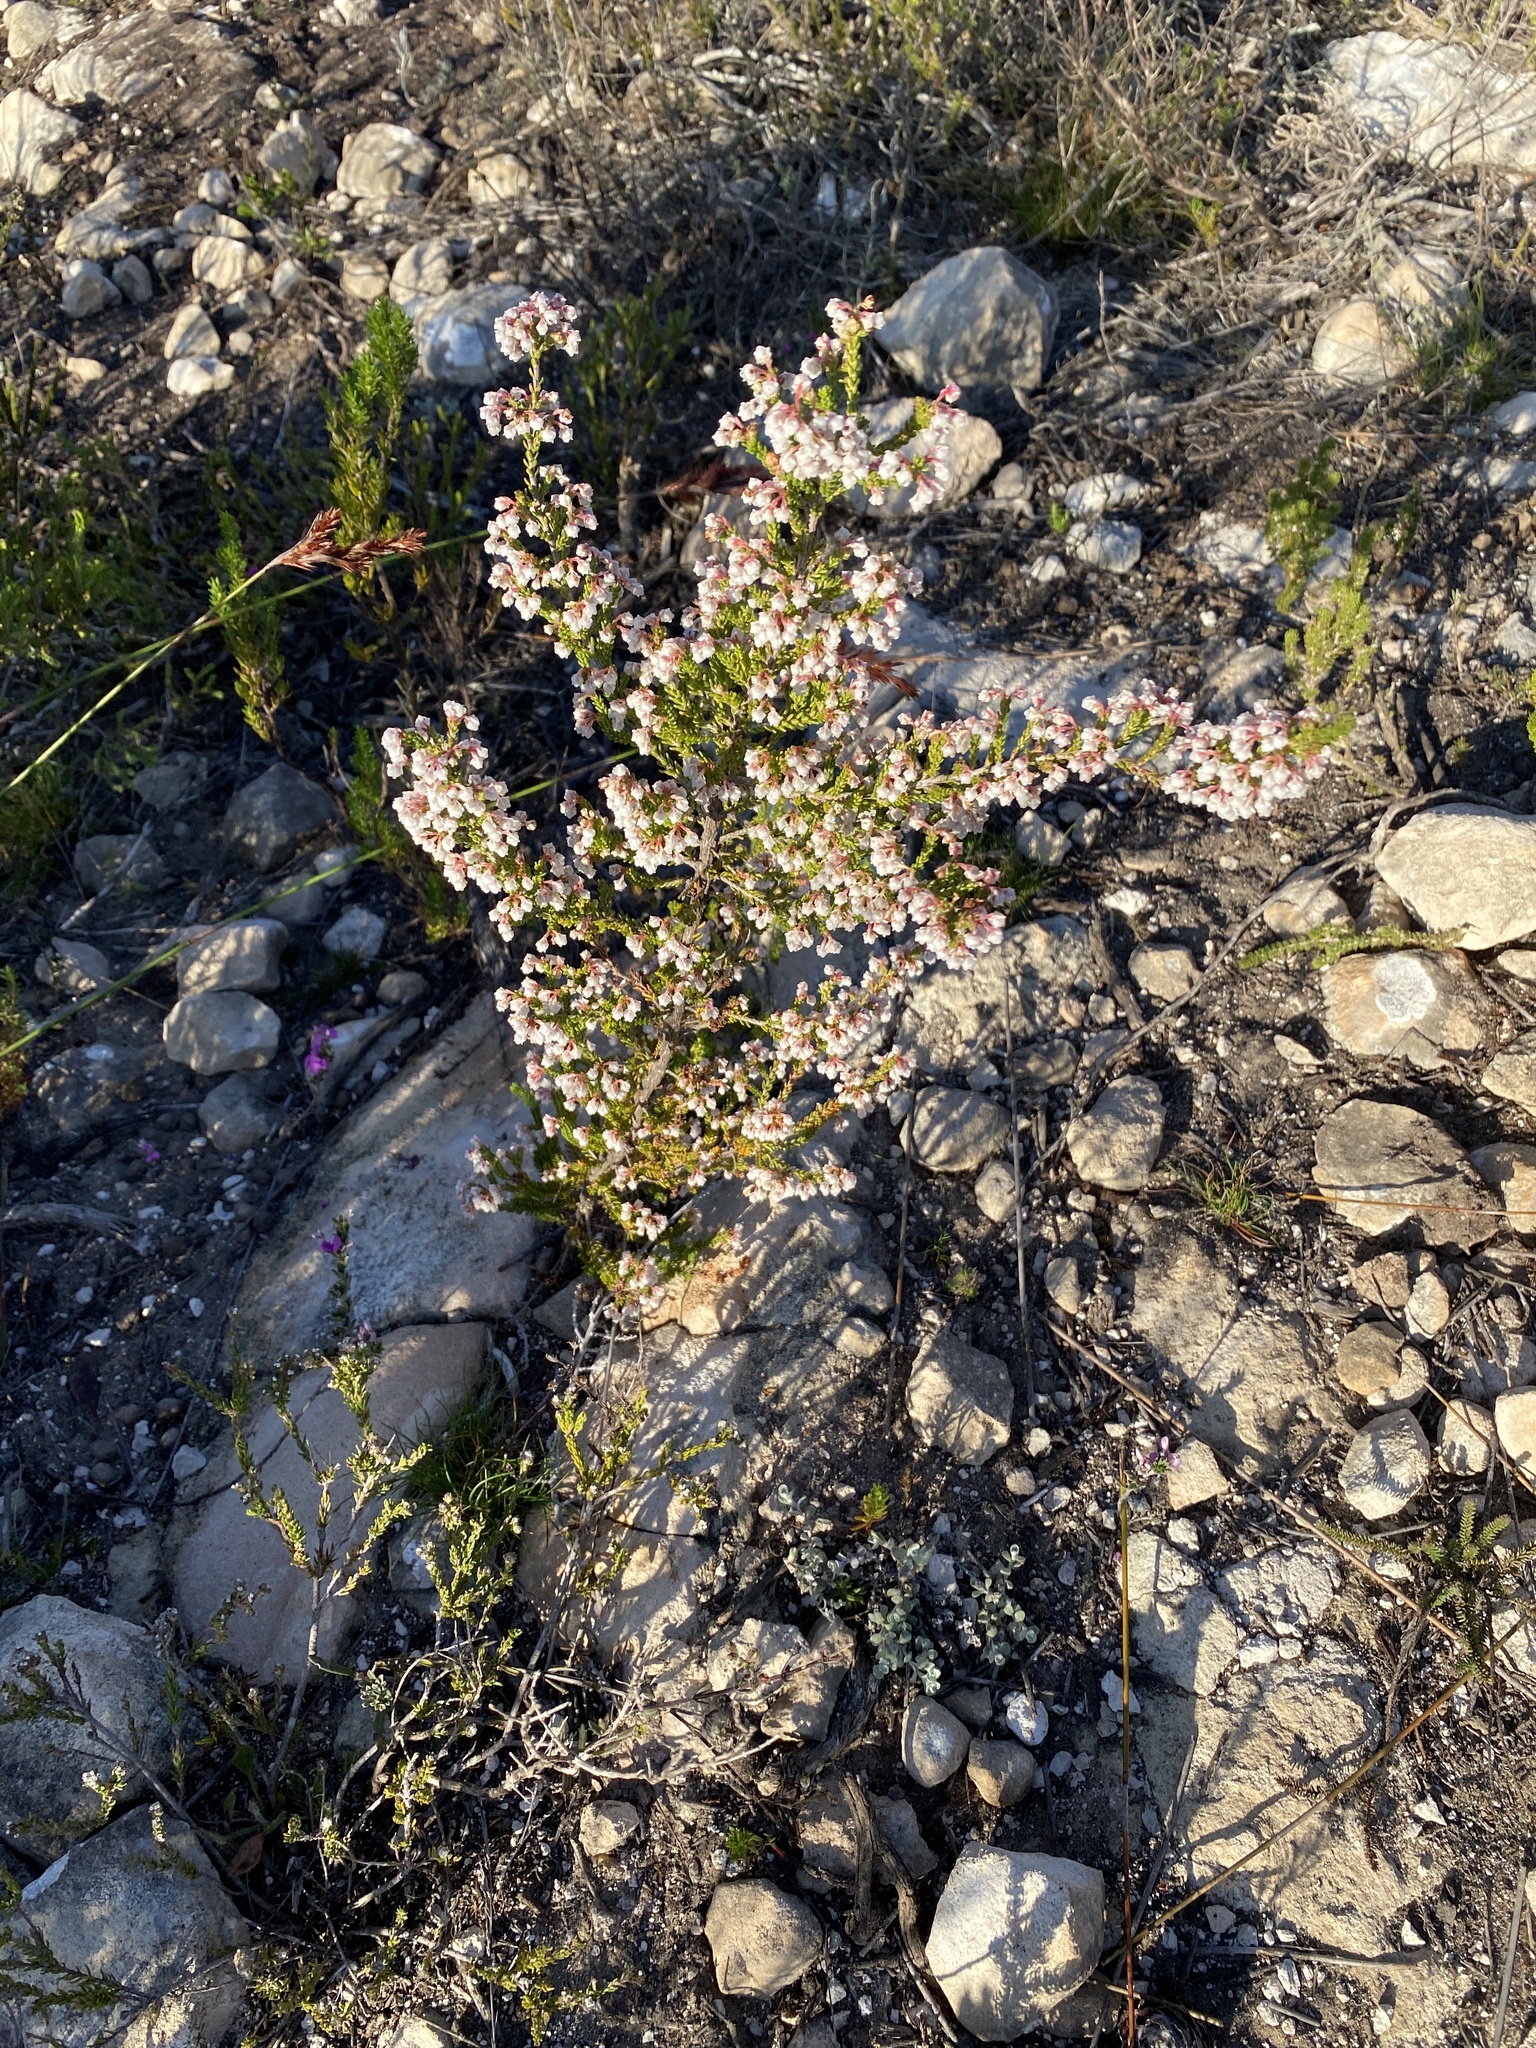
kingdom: Plantae
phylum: Tracheophyta
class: Magnoliopsida
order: Ericales
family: Ericaceae
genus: Erica
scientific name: Erica spectabilis
